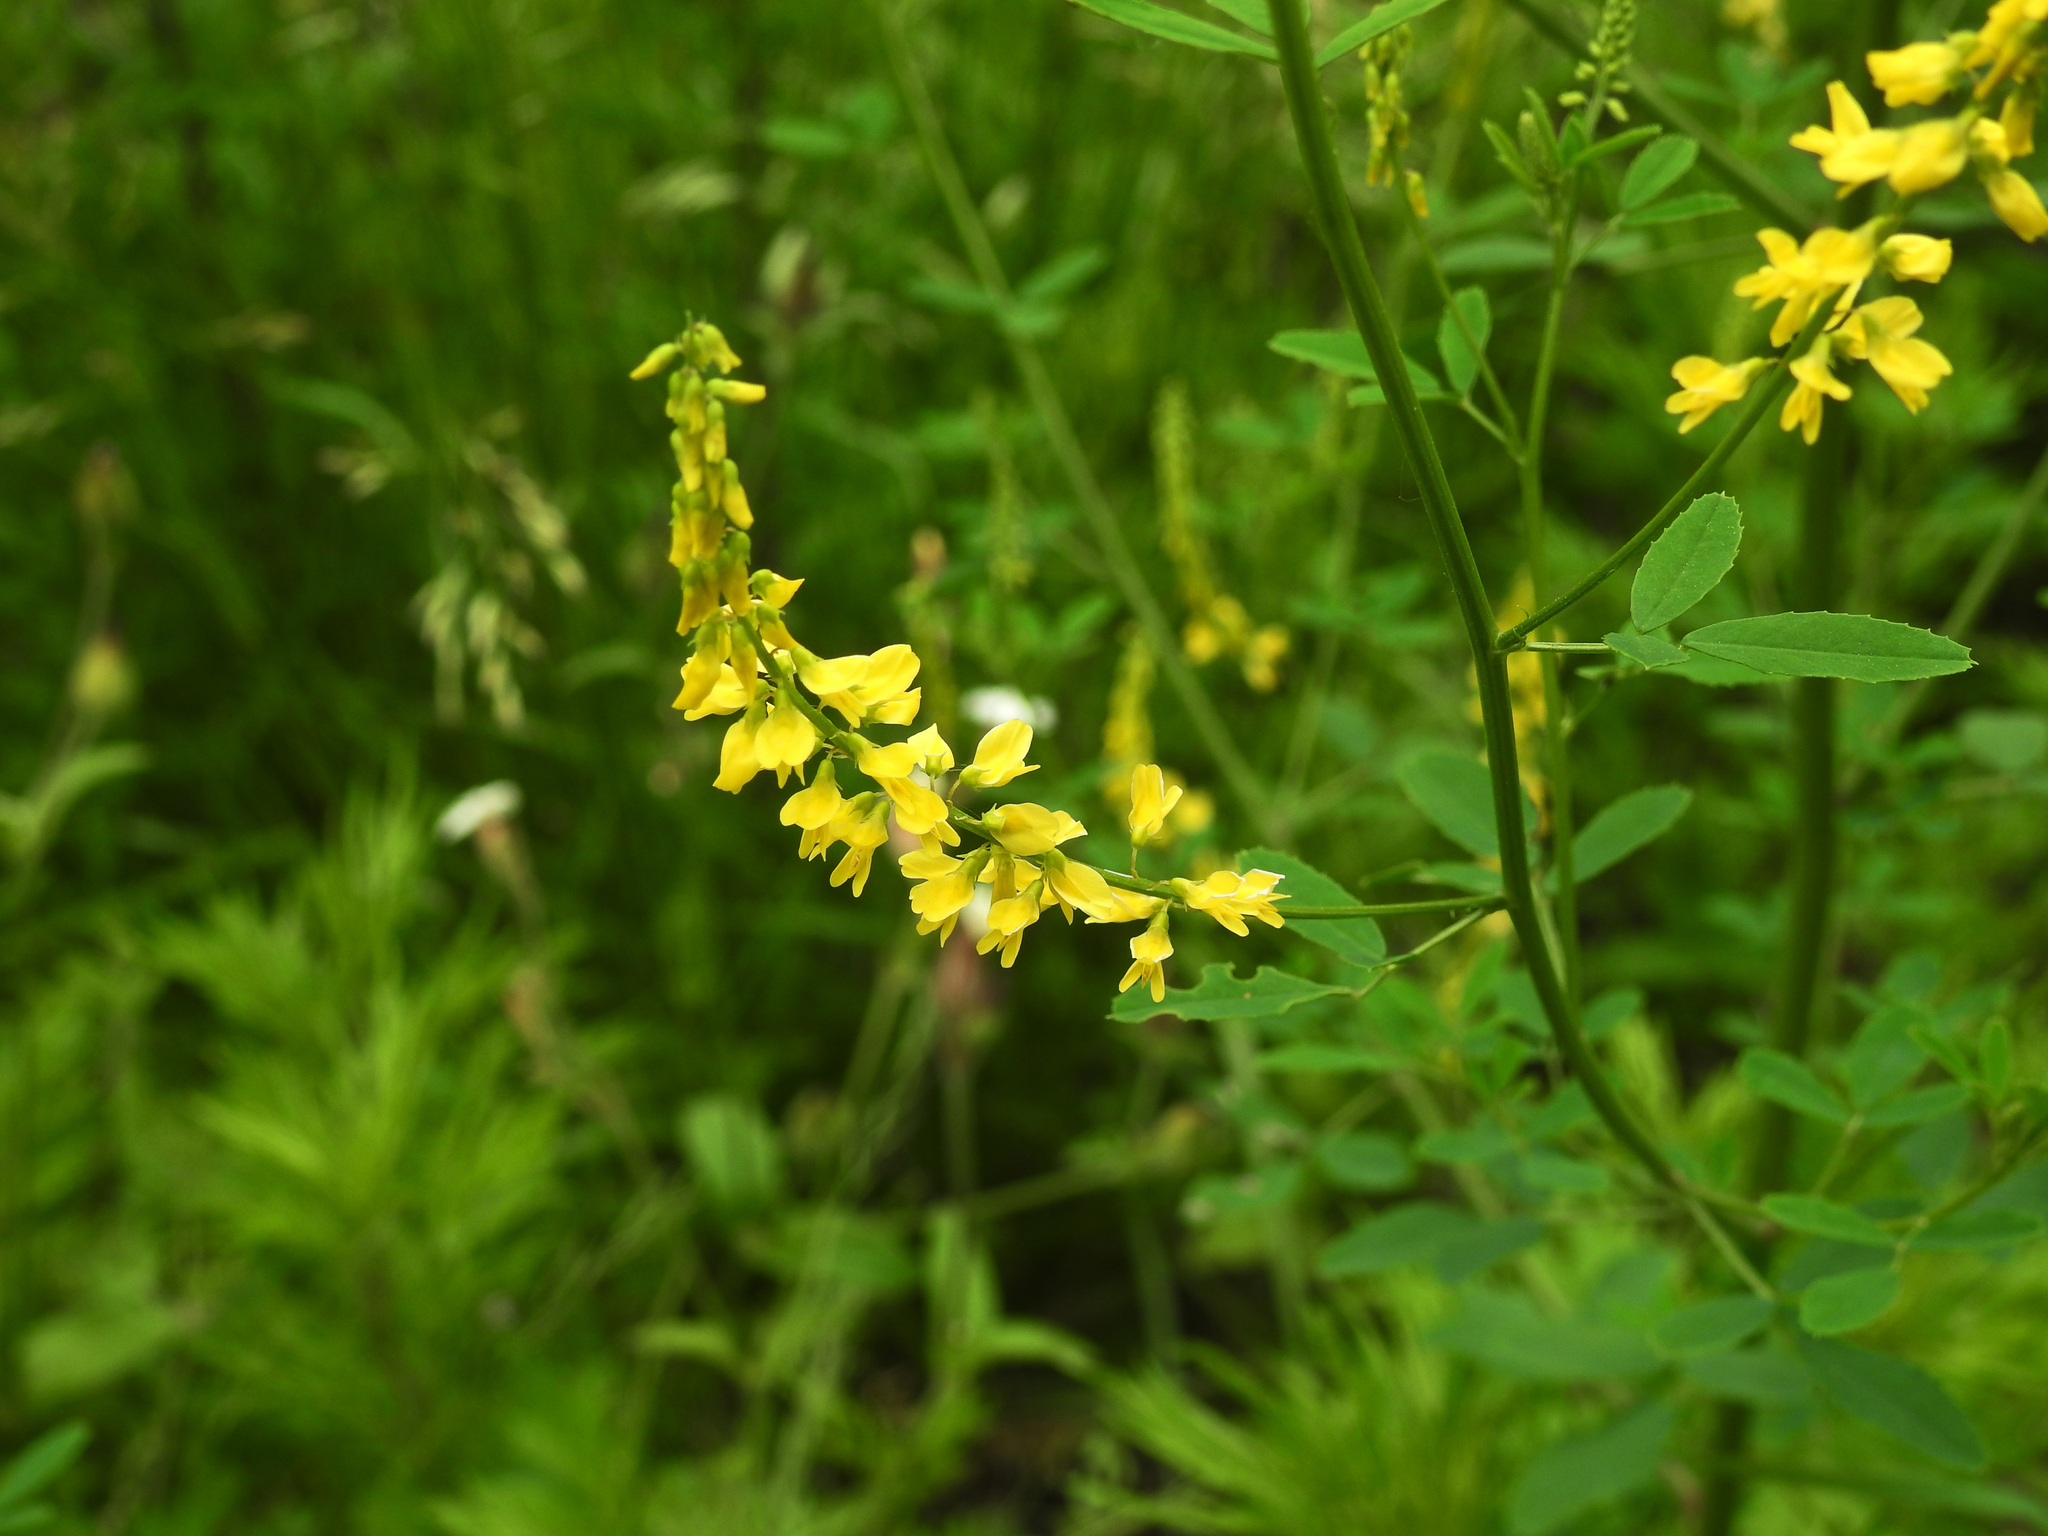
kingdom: Plantae
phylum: Tracheophyta
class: Magnoliopsida
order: Fabales
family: Fabaceae
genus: Melilotus
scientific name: Melilotus officinalis
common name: Sweetclover
